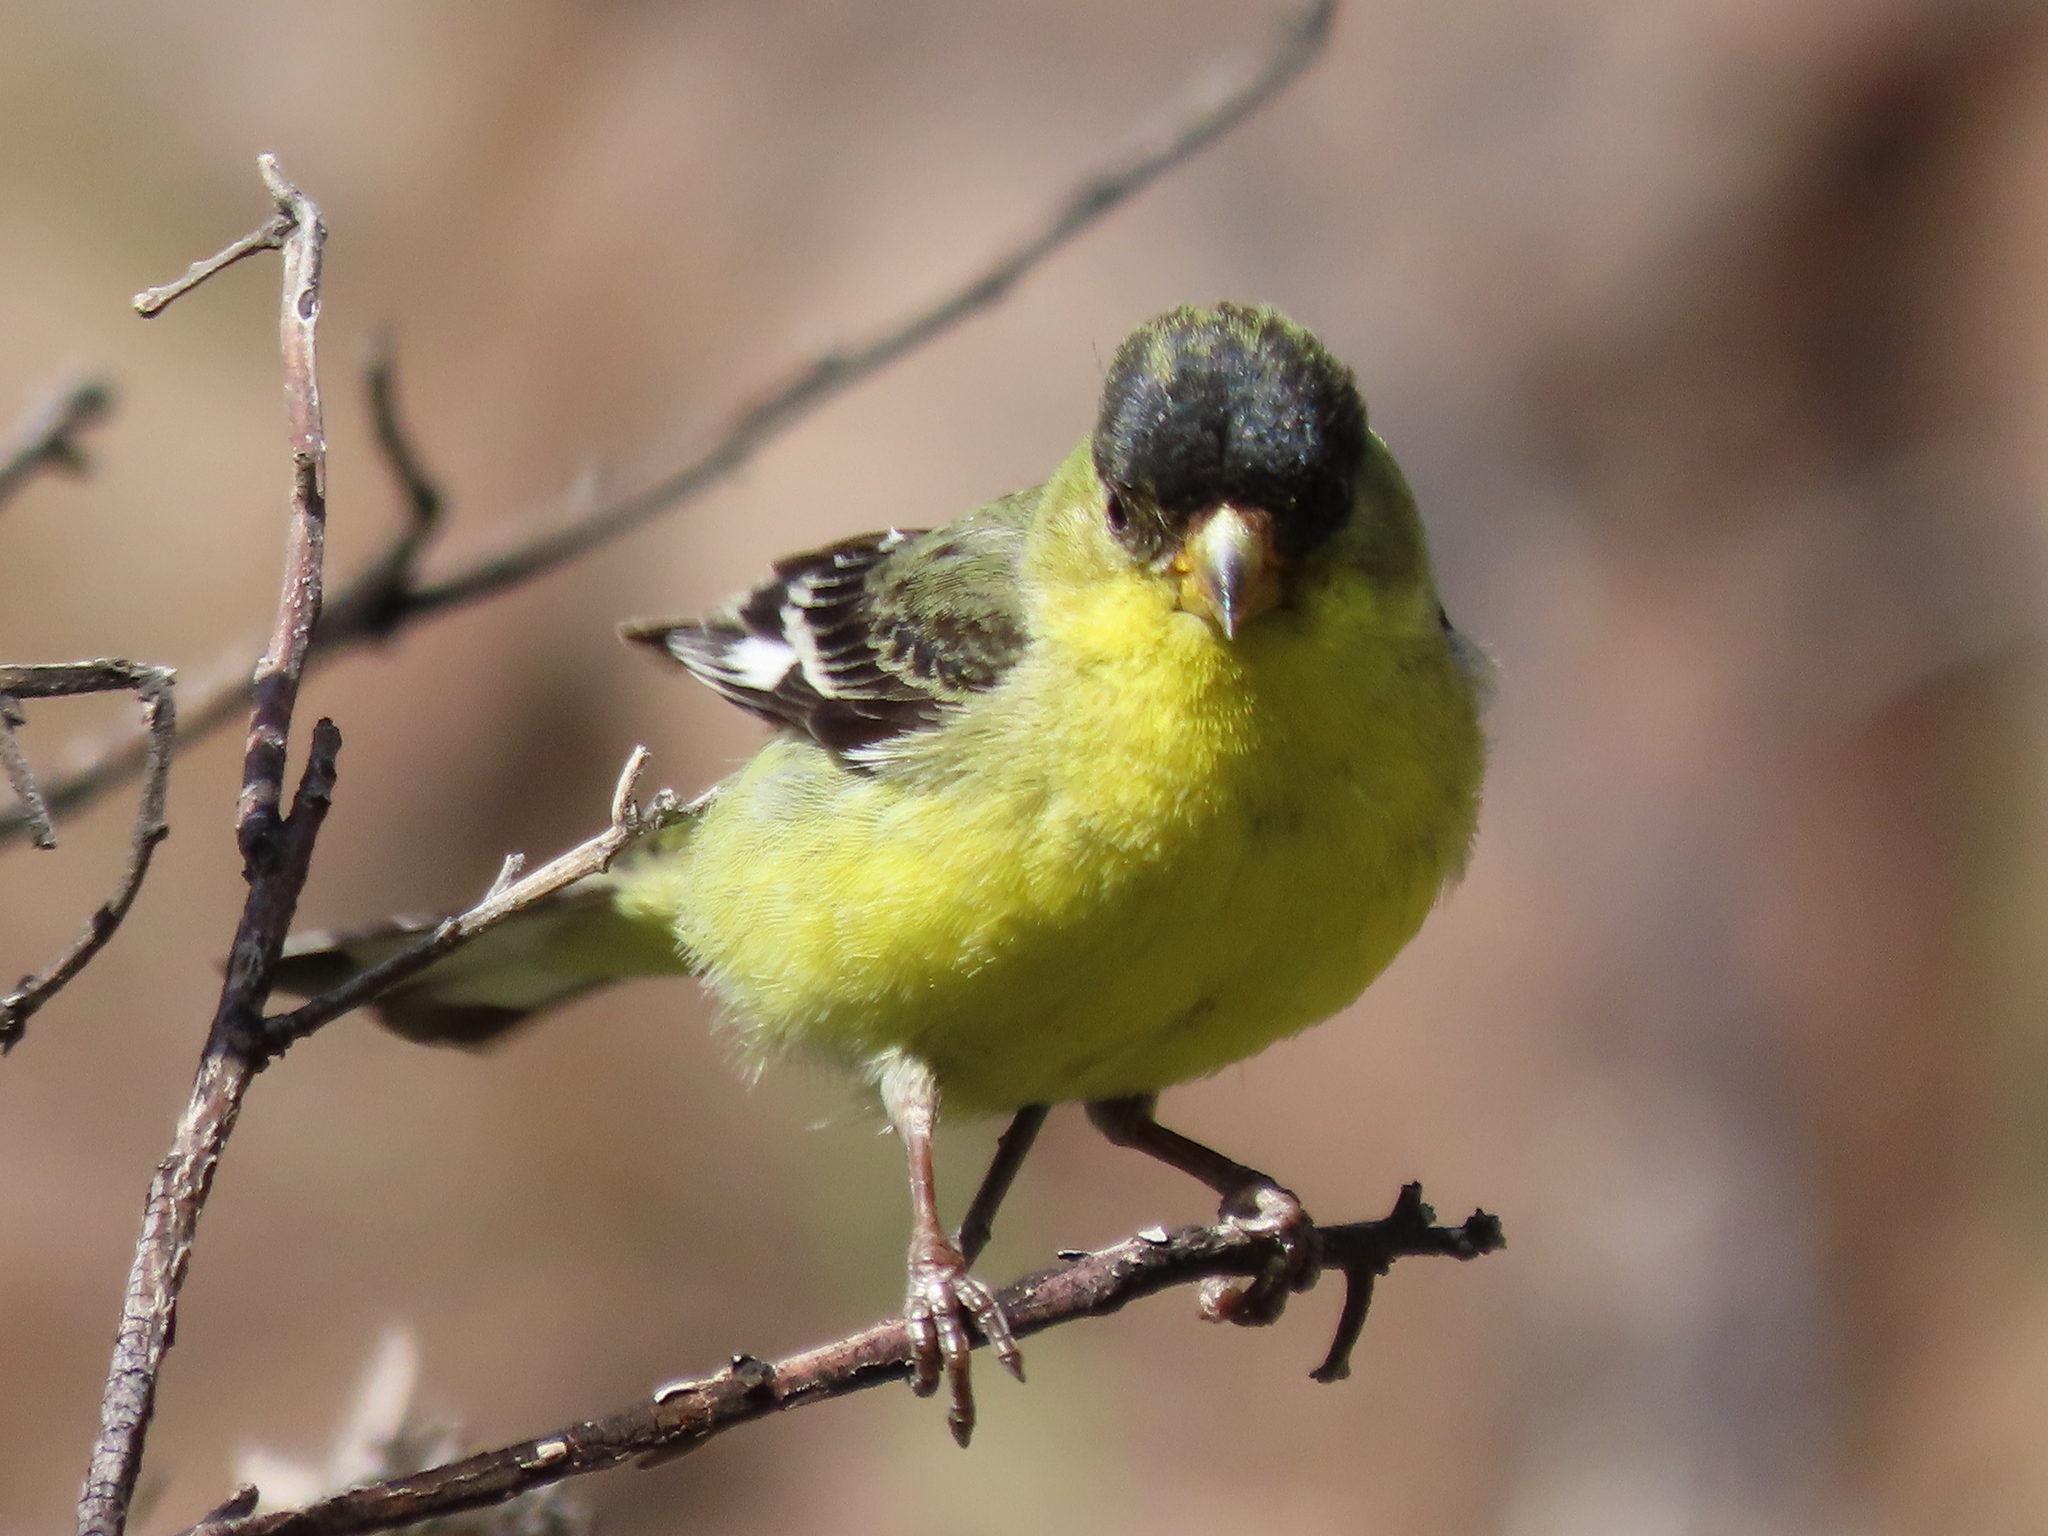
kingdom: Animalia
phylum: Chordata
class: Aves
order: Passeriformes
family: Fringillidae
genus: Spinus
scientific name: Spinus psaltria
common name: Lesser goldfinch
